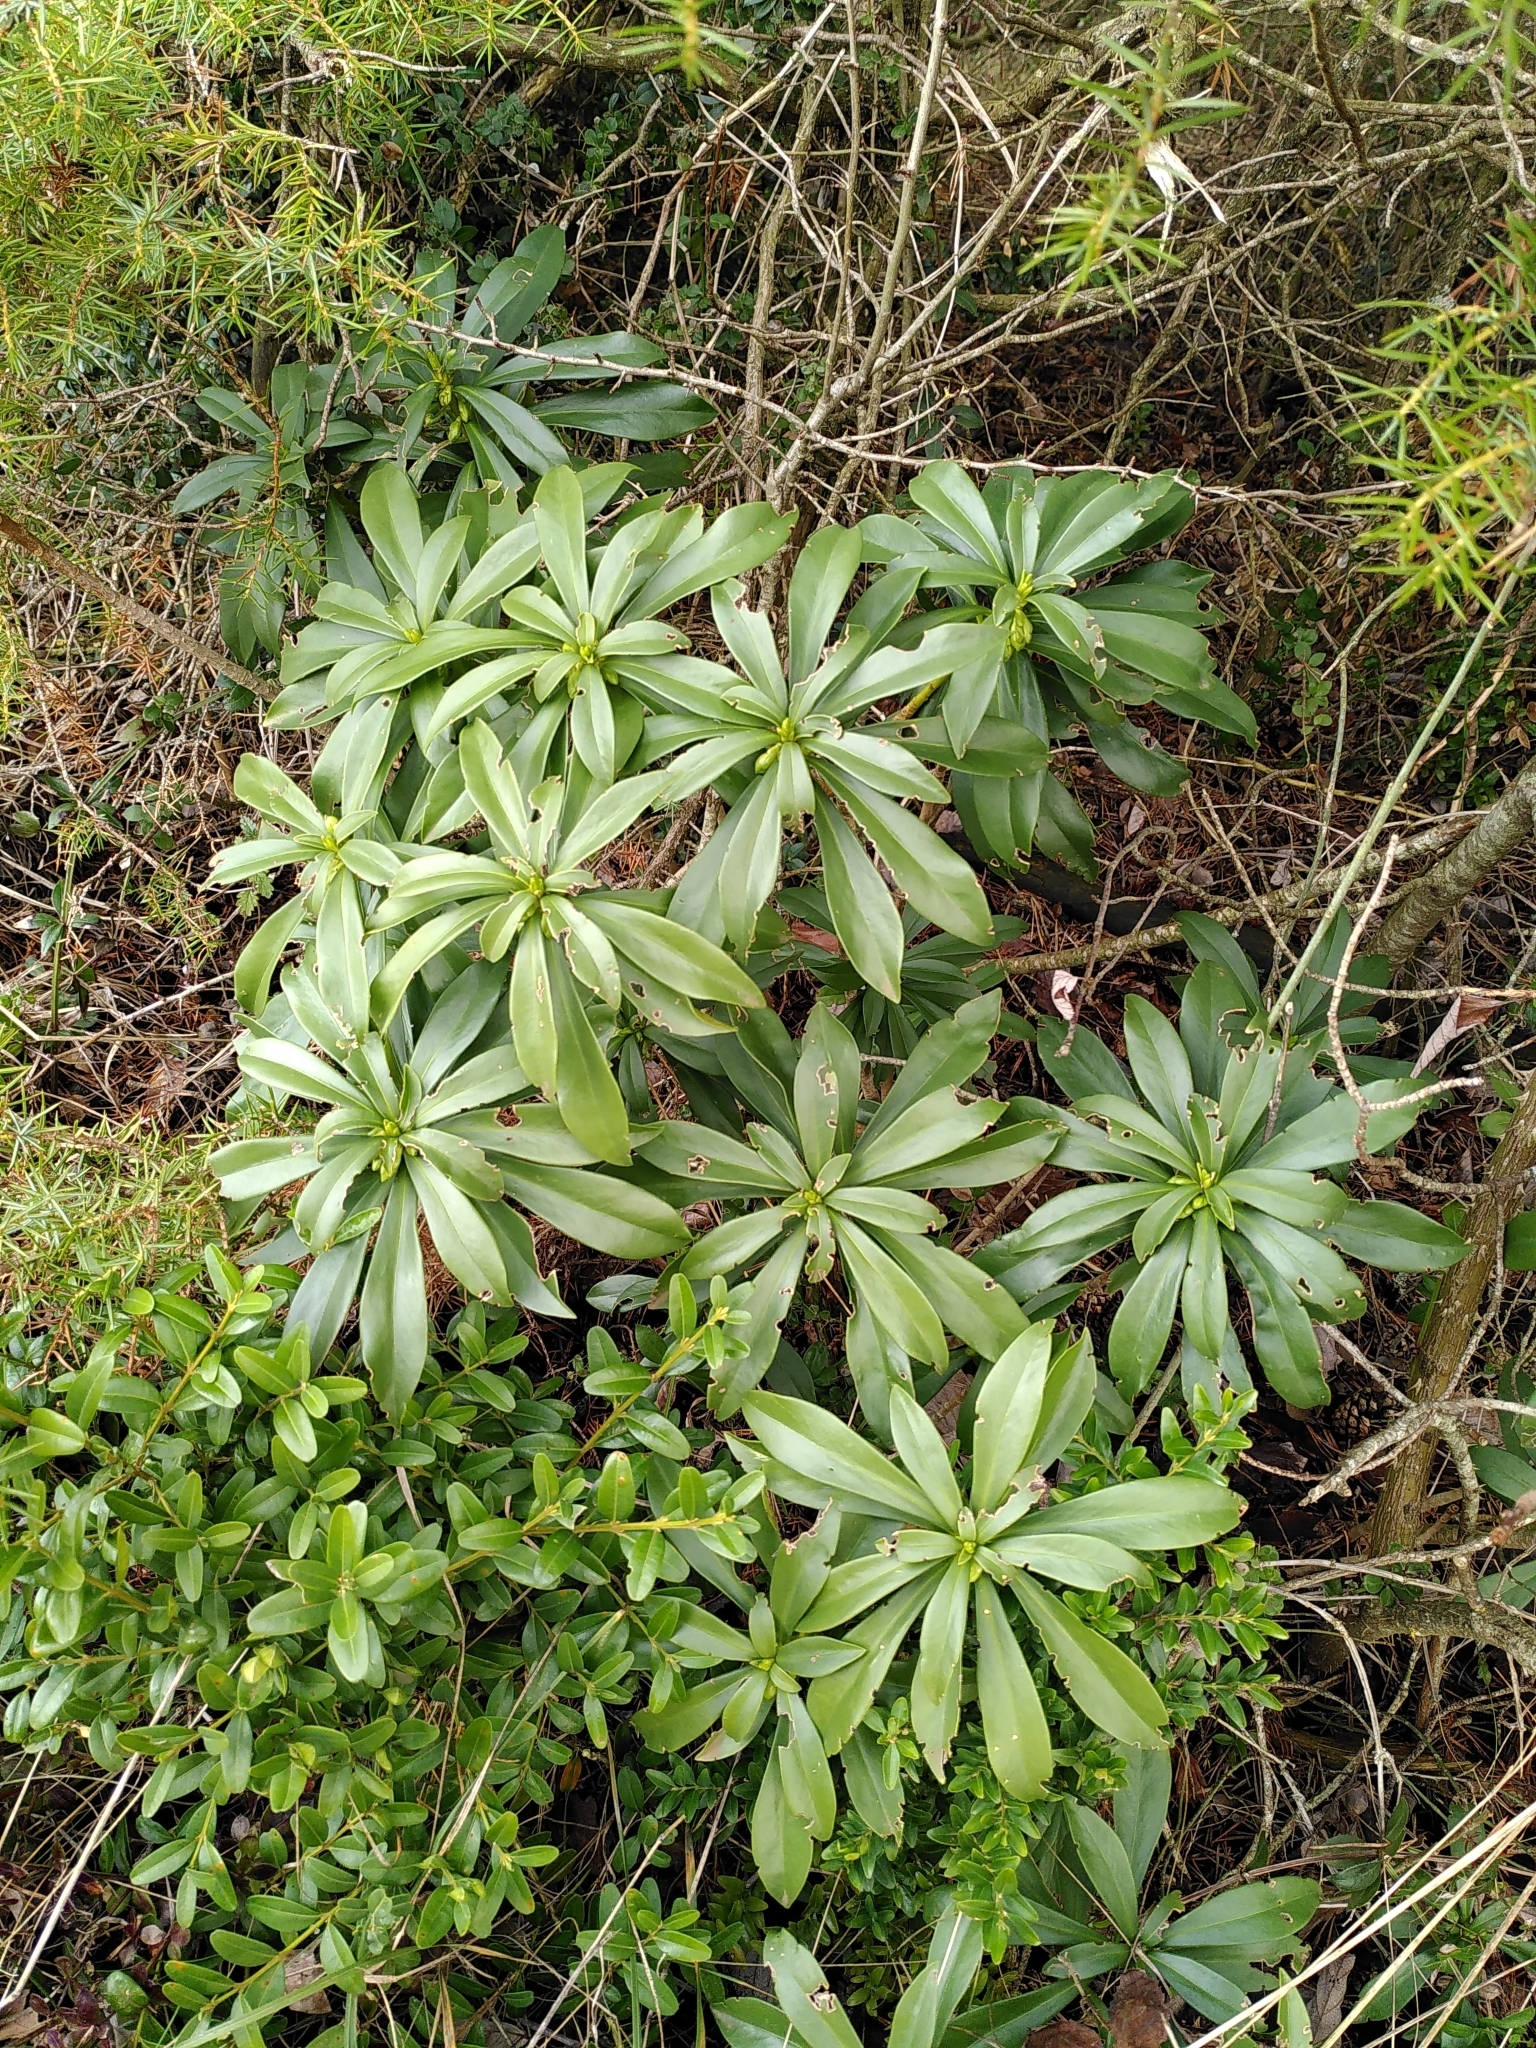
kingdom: Plantae
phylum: Tracheophyta
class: Magnoliopsida
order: Malvales
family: Thymelaeaceae
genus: Daphne
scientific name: Daphne laureola
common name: Spurge-laurel
